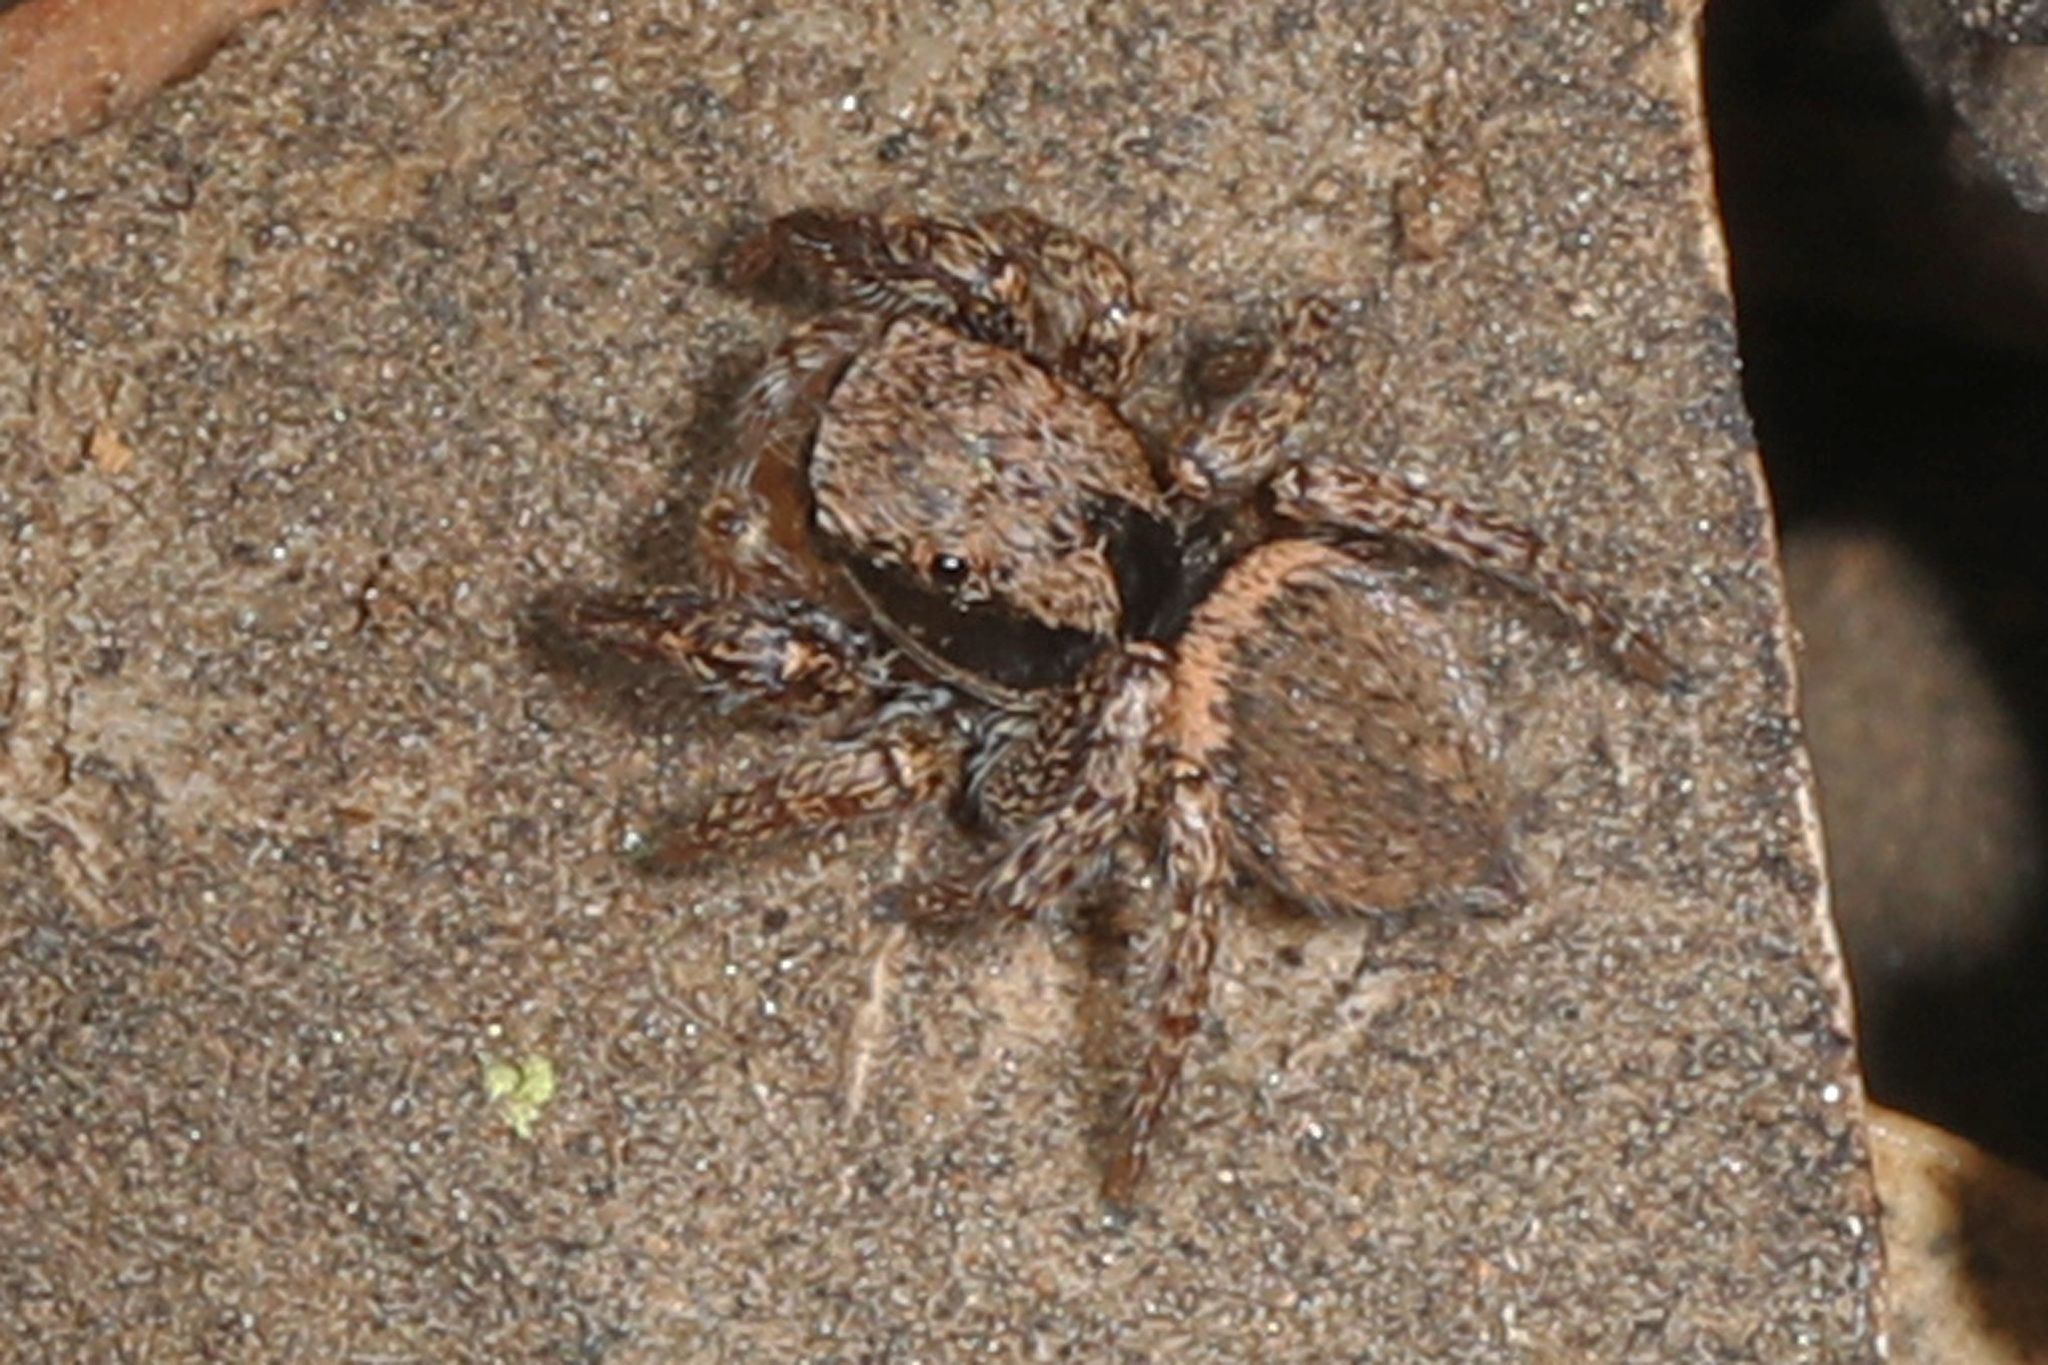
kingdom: Animalia
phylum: Arthropoda
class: Arachnida
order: Araneae
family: Salticidae
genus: Habronattus
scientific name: Habronattus oregonensis
